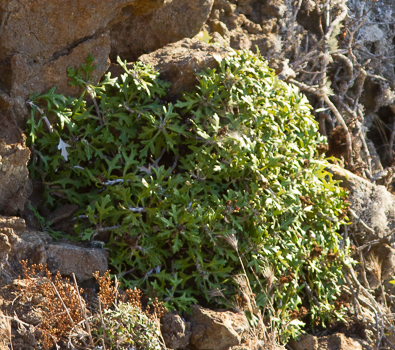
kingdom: Plantae
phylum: Tracheophyta
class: Magnoliopsida
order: Asterales
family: Asteraceae
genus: Eriophyllum
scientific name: Eriophyllum staechadifolium
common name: Lizardtail
